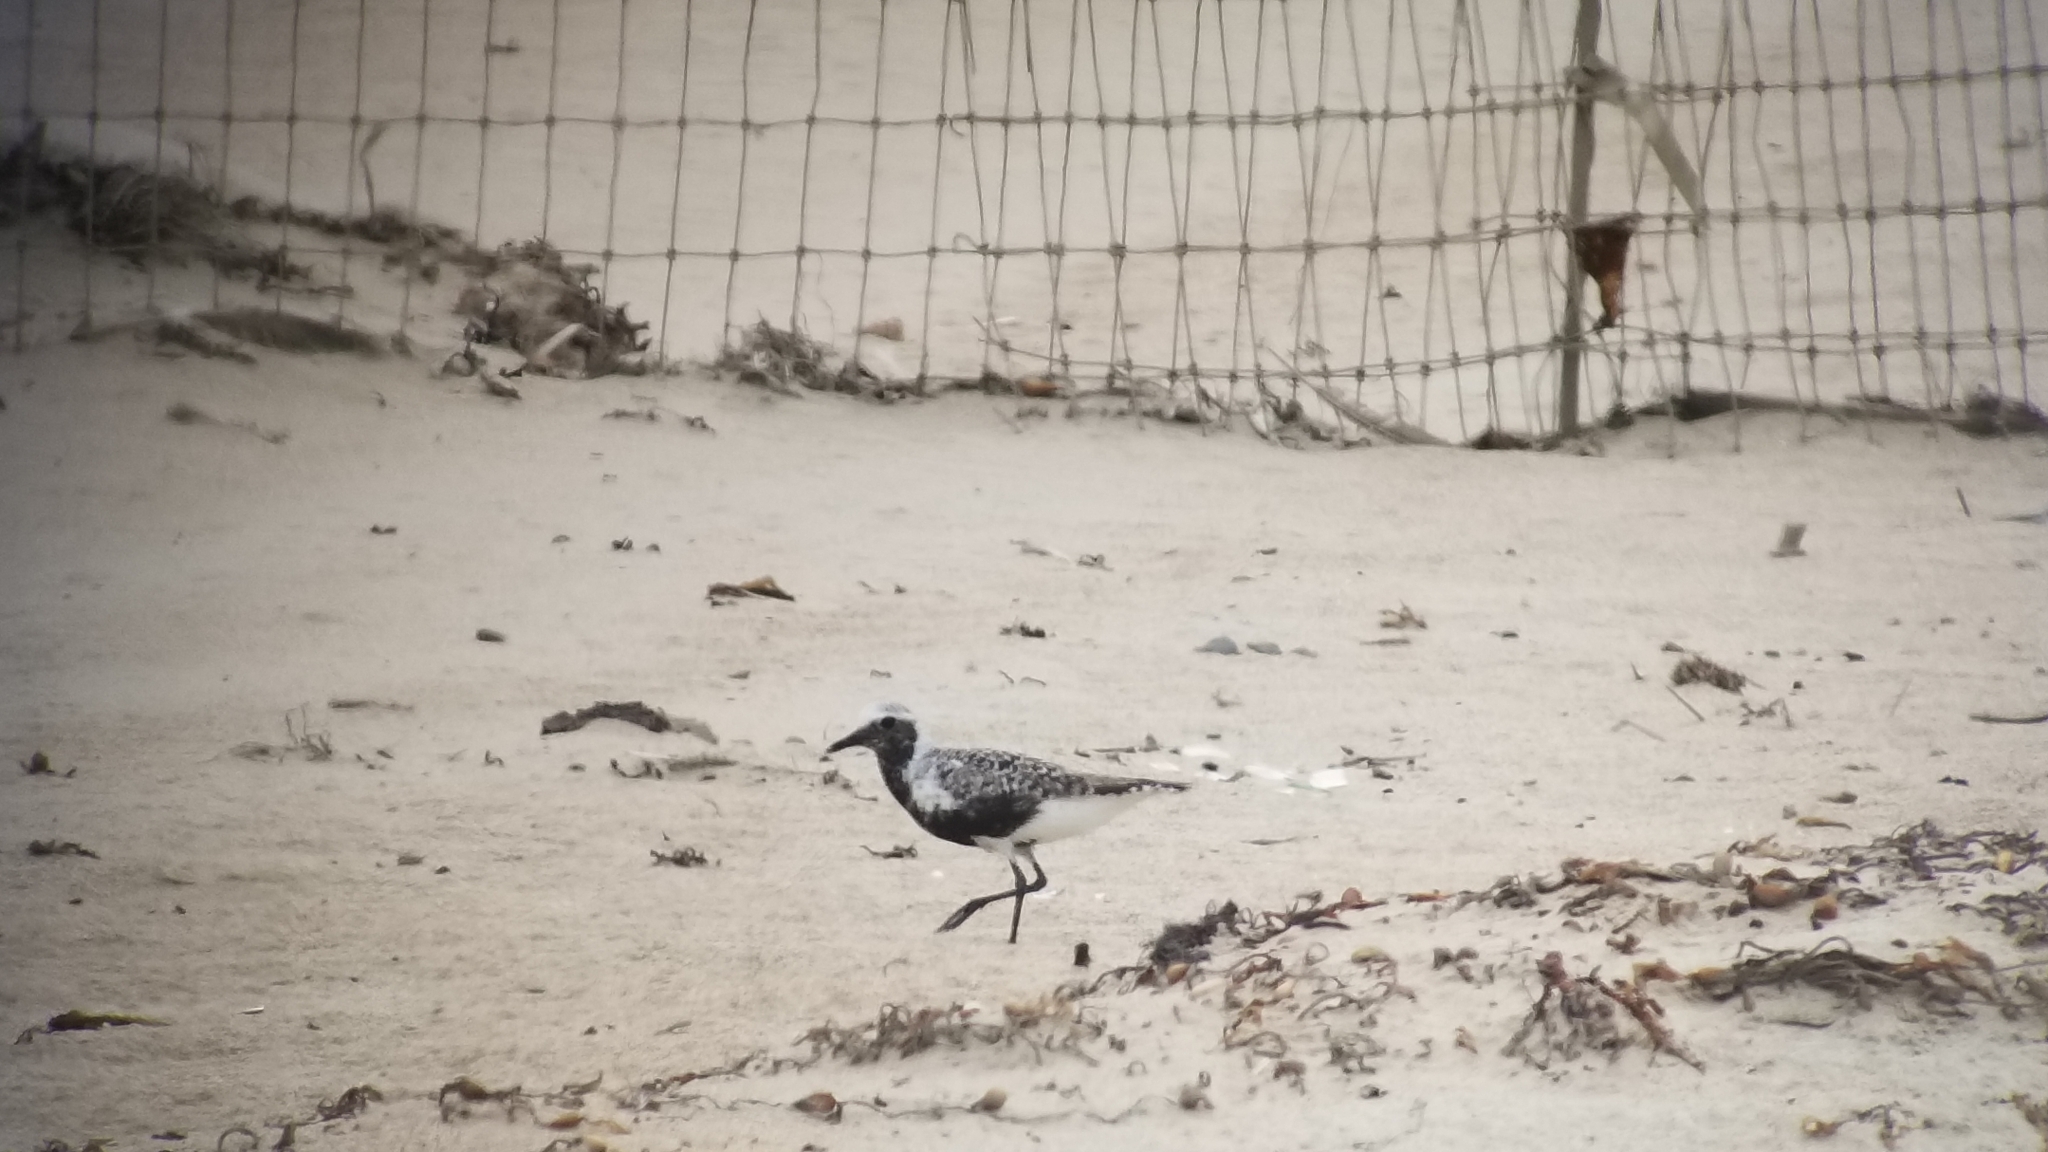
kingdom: Animalia
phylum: Chordata
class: Aves
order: Charadriiformes
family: Charadriidae
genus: Pluvialis
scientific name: Pluvialis squatarola
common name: Grey plover
